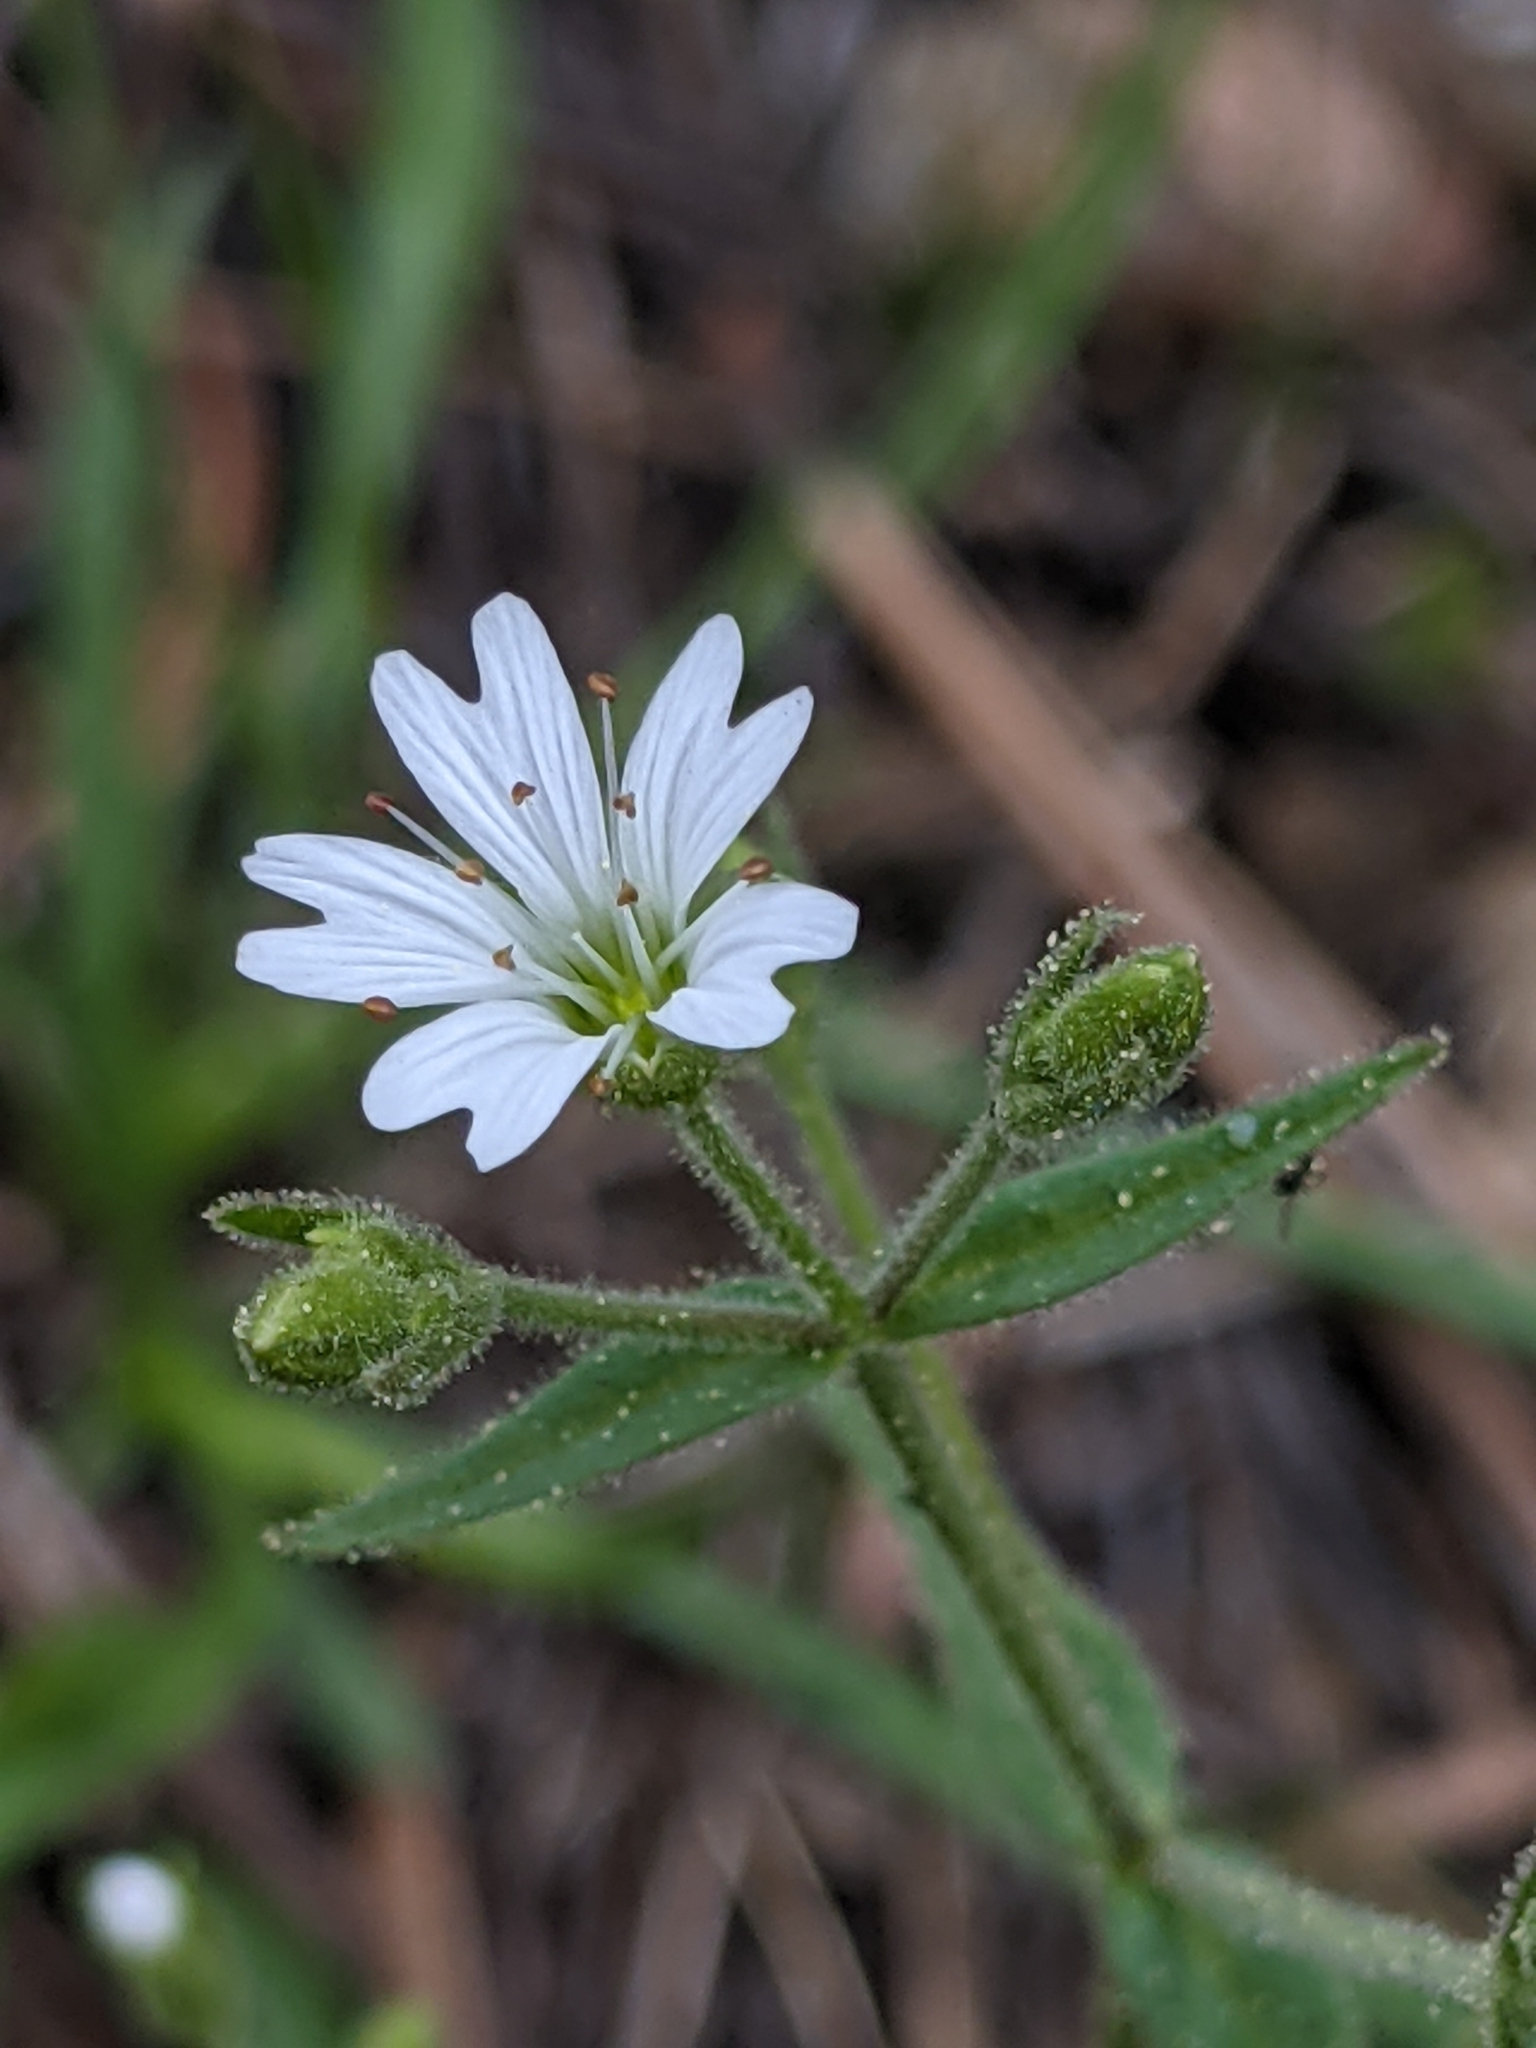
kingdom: Plantae
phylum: Tracheophyta
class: Magnoliopsida
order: Caryophyllales
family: Caryophyllaceae
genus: Schizotechium
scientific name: Schizotechium jamesianum
